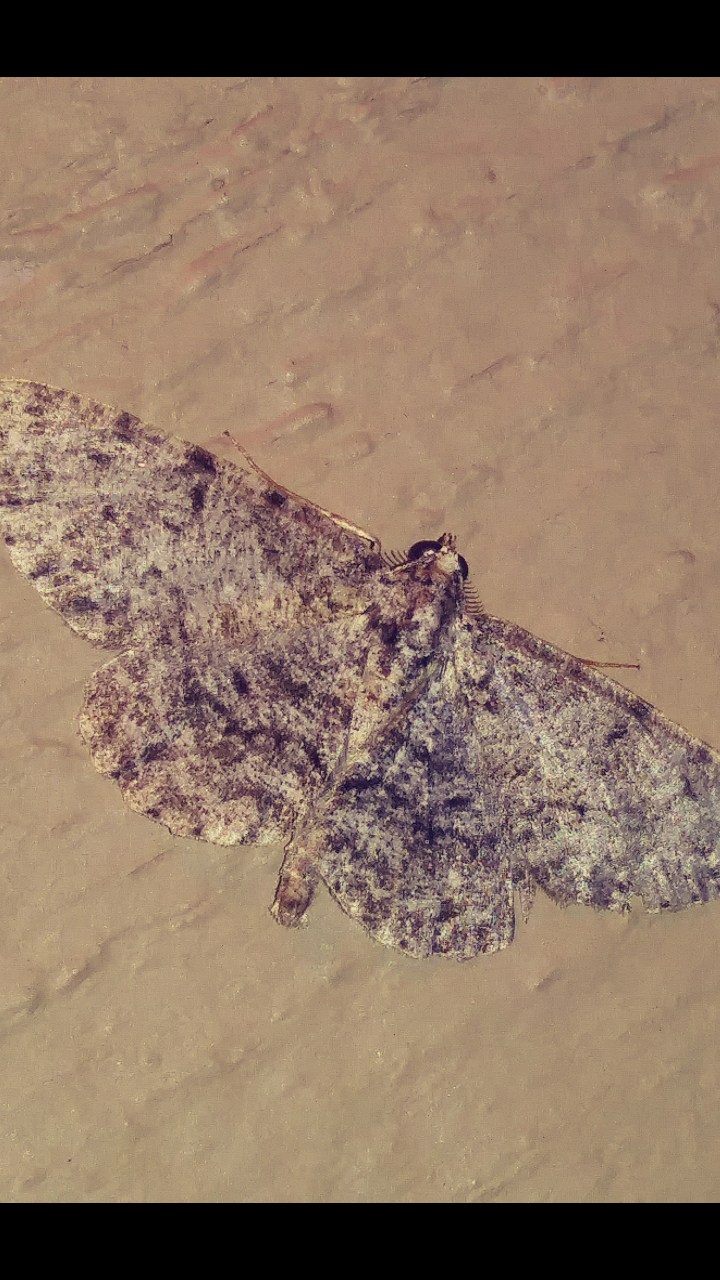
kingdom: Animalia
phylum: Arthropoda
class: Insecta
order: Lepidoptera
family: Geometridae
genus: Protoboarmia
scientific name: Protoboarmia porcelaria
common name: Porcelain gray
